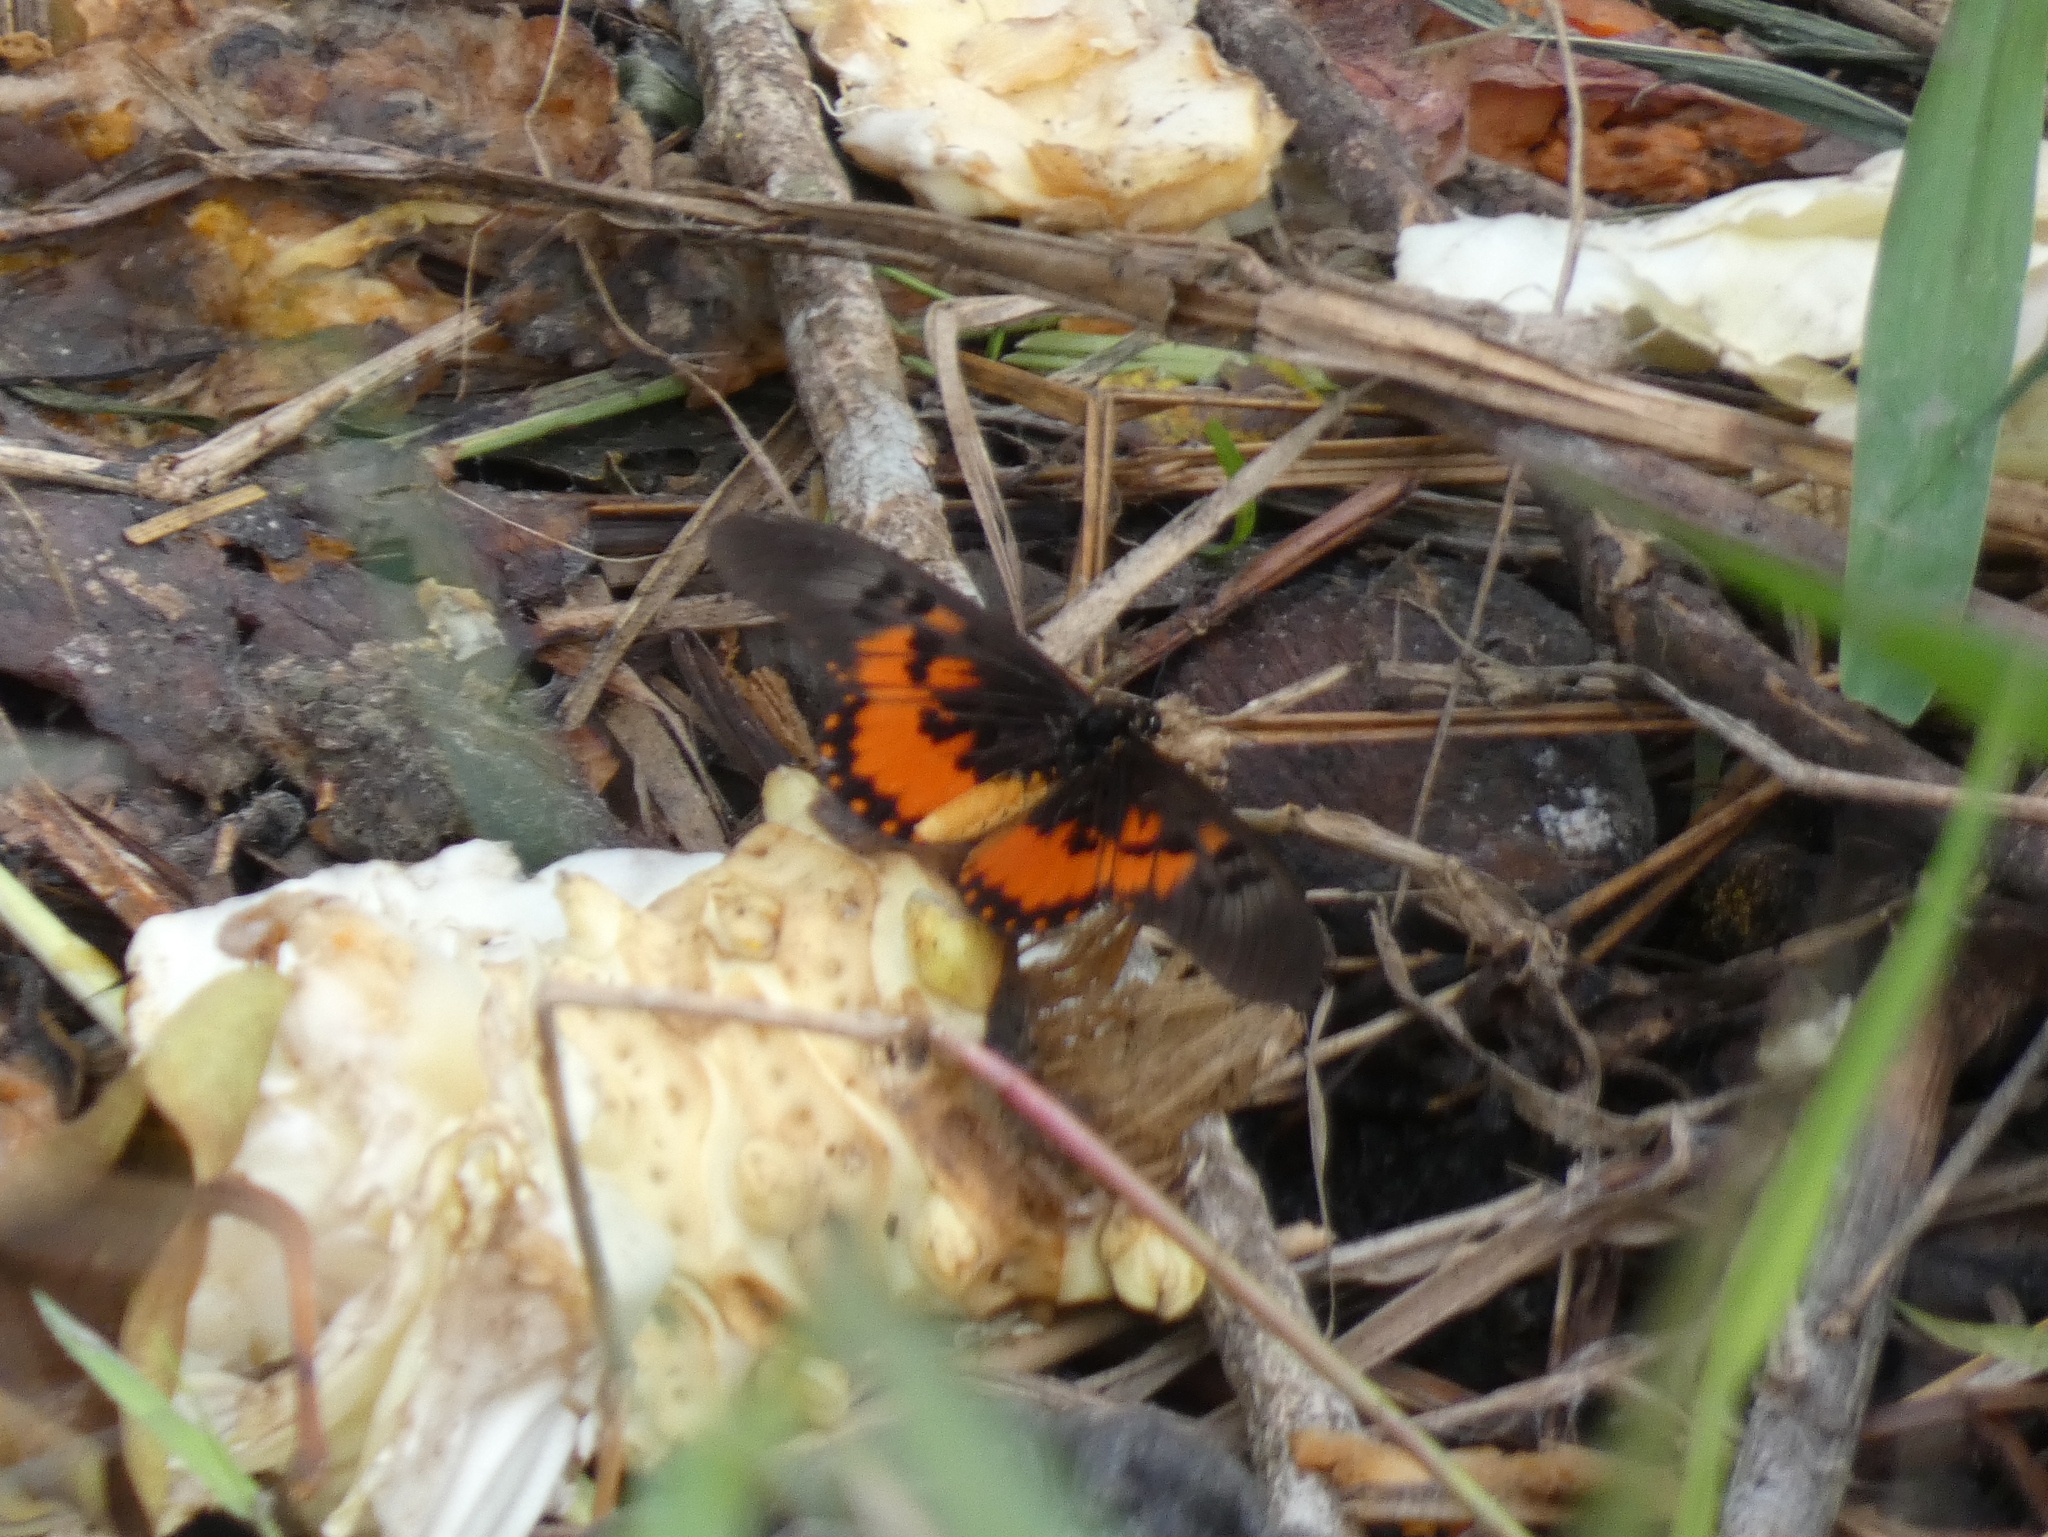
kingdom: Animalia
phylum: Arthropoda
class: Insecta
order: Lepidoptera
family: Nymphalidae
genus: Acraea
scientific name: Acraea
